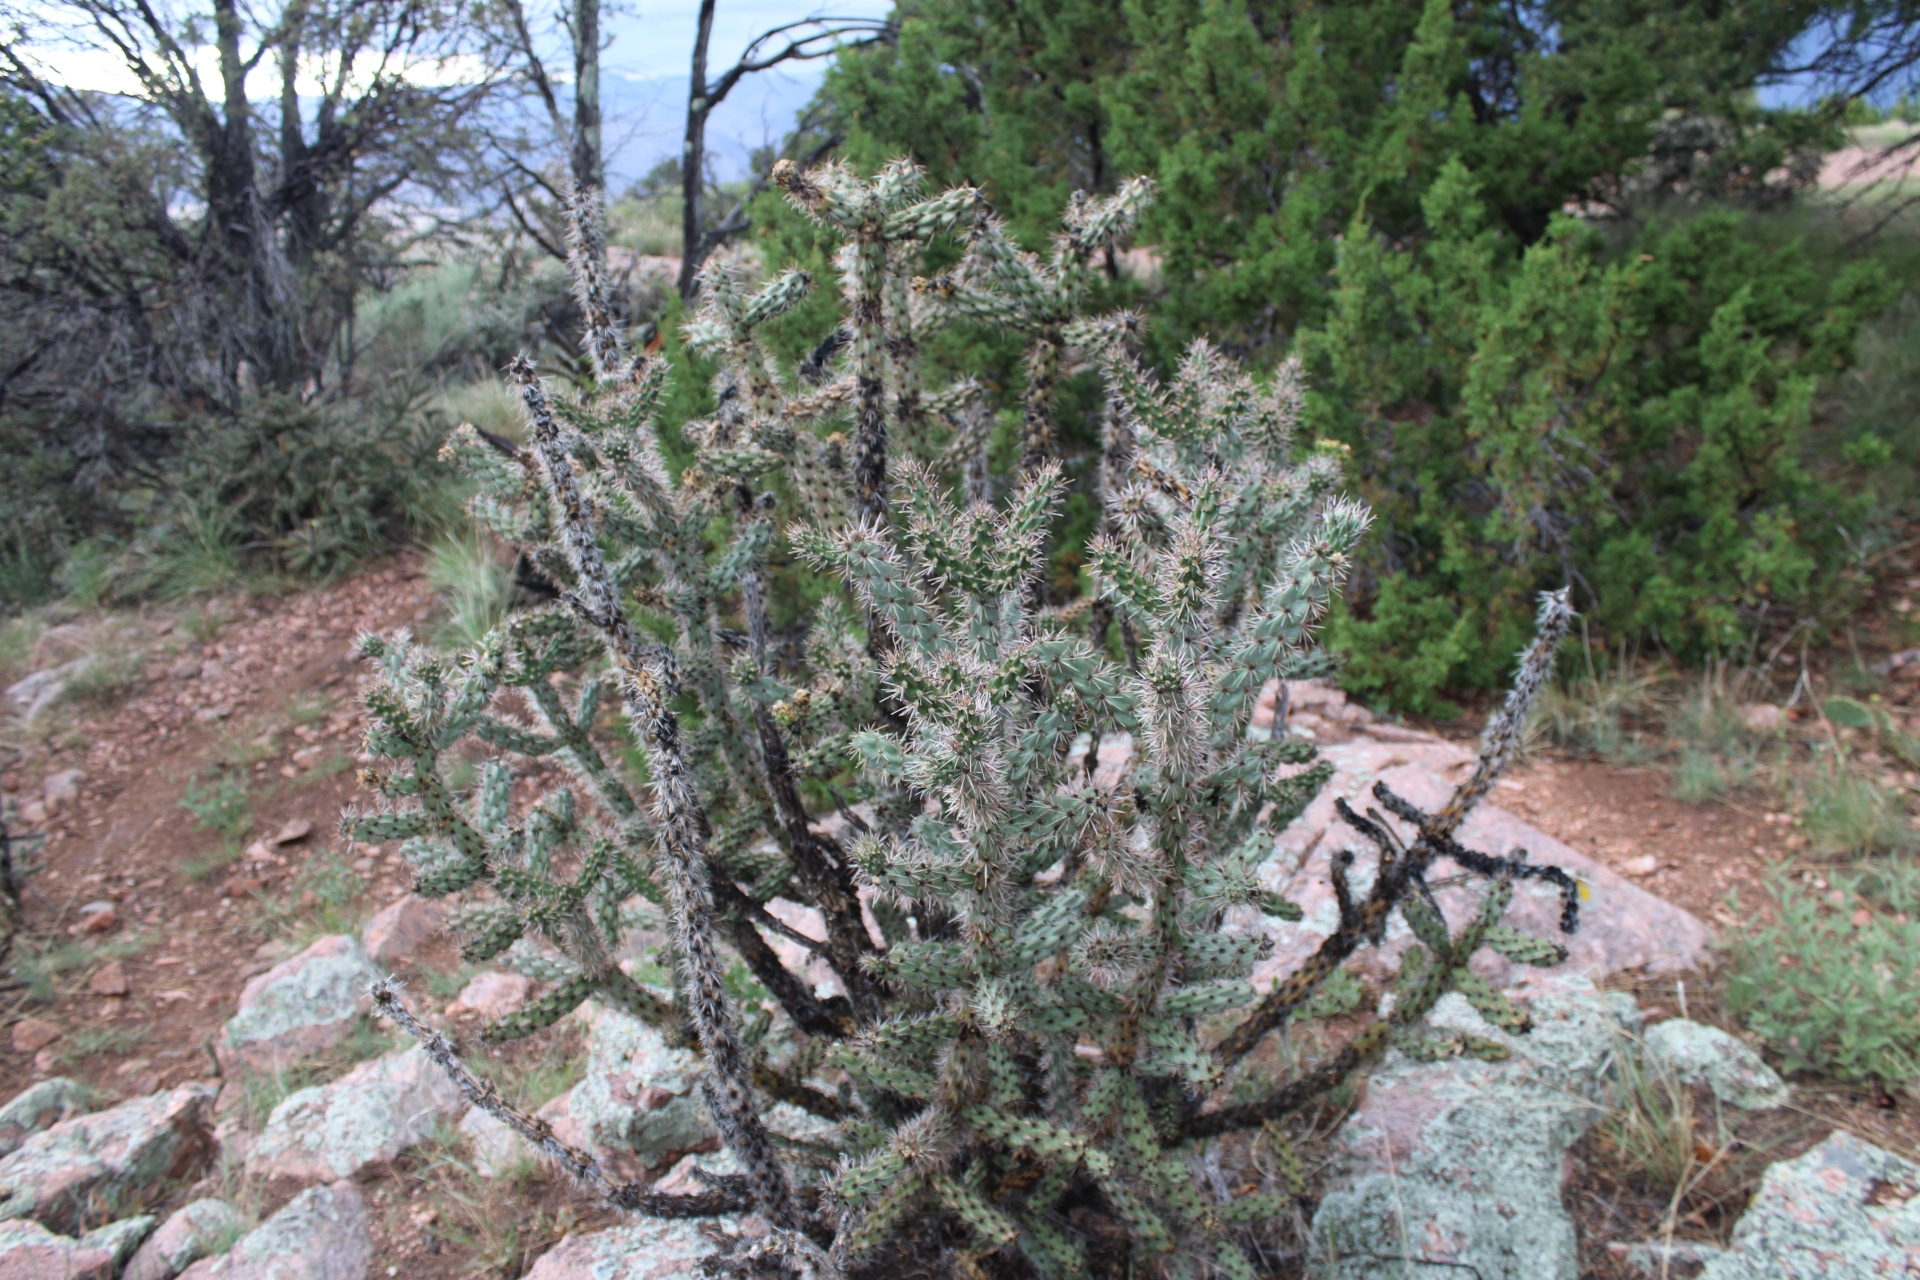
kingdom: Plantae
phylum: Tracheophyta
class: Magnoliopsida
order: Caryophyllales
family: Cactaceae
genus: Cylindropuntia
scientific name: Cylindropuntia imbricata
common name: Candelabrum cactus
